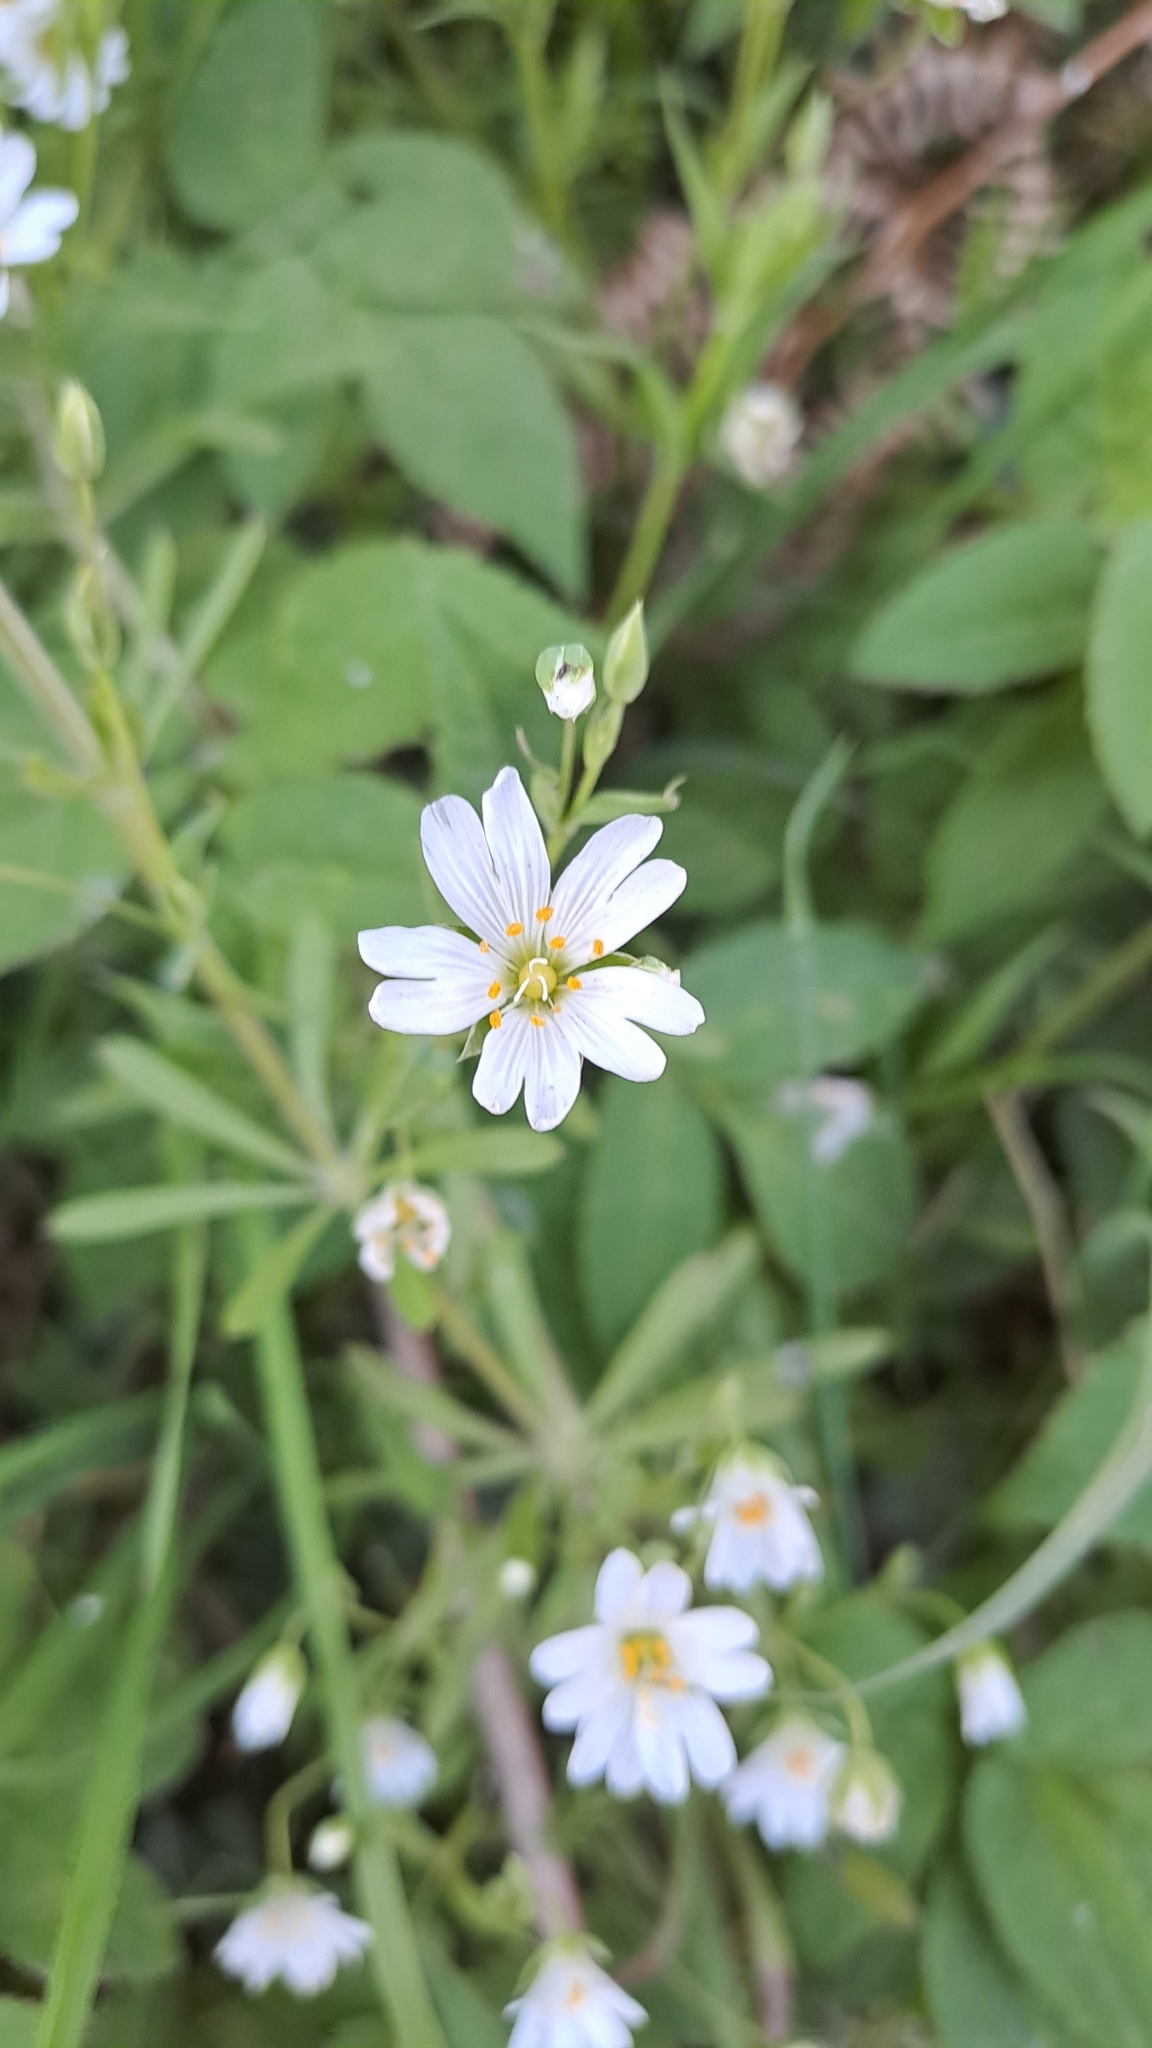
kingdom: Plantae
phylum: Tracheophyta
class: Magnoliopsida
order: Caryophyllales
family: Caryophyllaceae
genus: Rabelera
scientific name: Rabelera holostea
